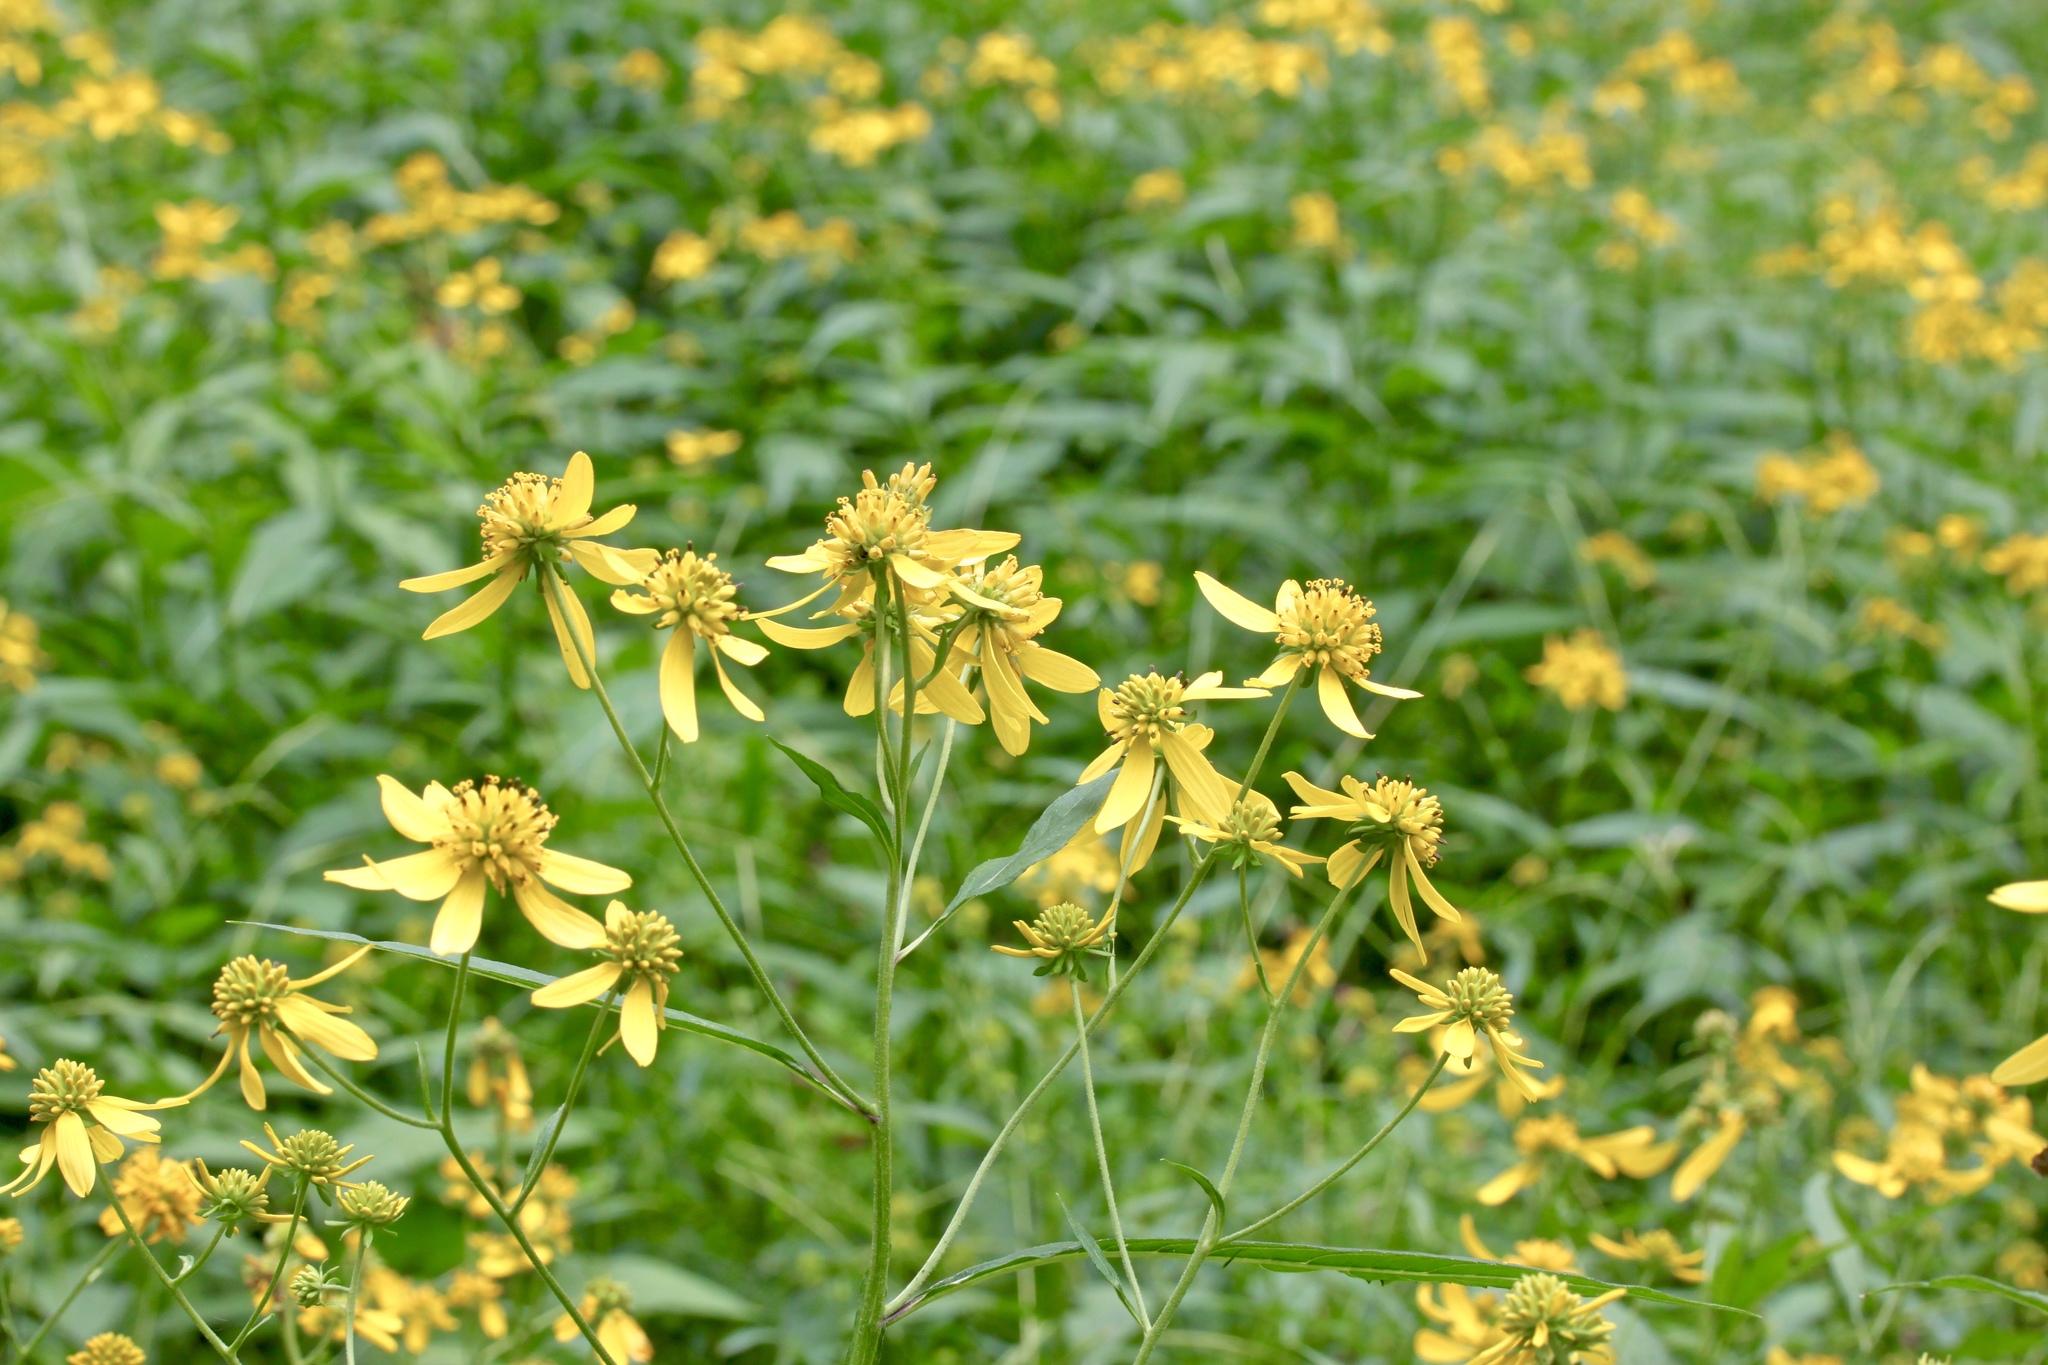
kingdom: Plantae
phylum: Tracheophyta
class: Magnoliopsida
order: Asterales
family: Asteraceae
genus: Verbesina
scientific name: Verbesina alternifolia
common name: Wingstem
